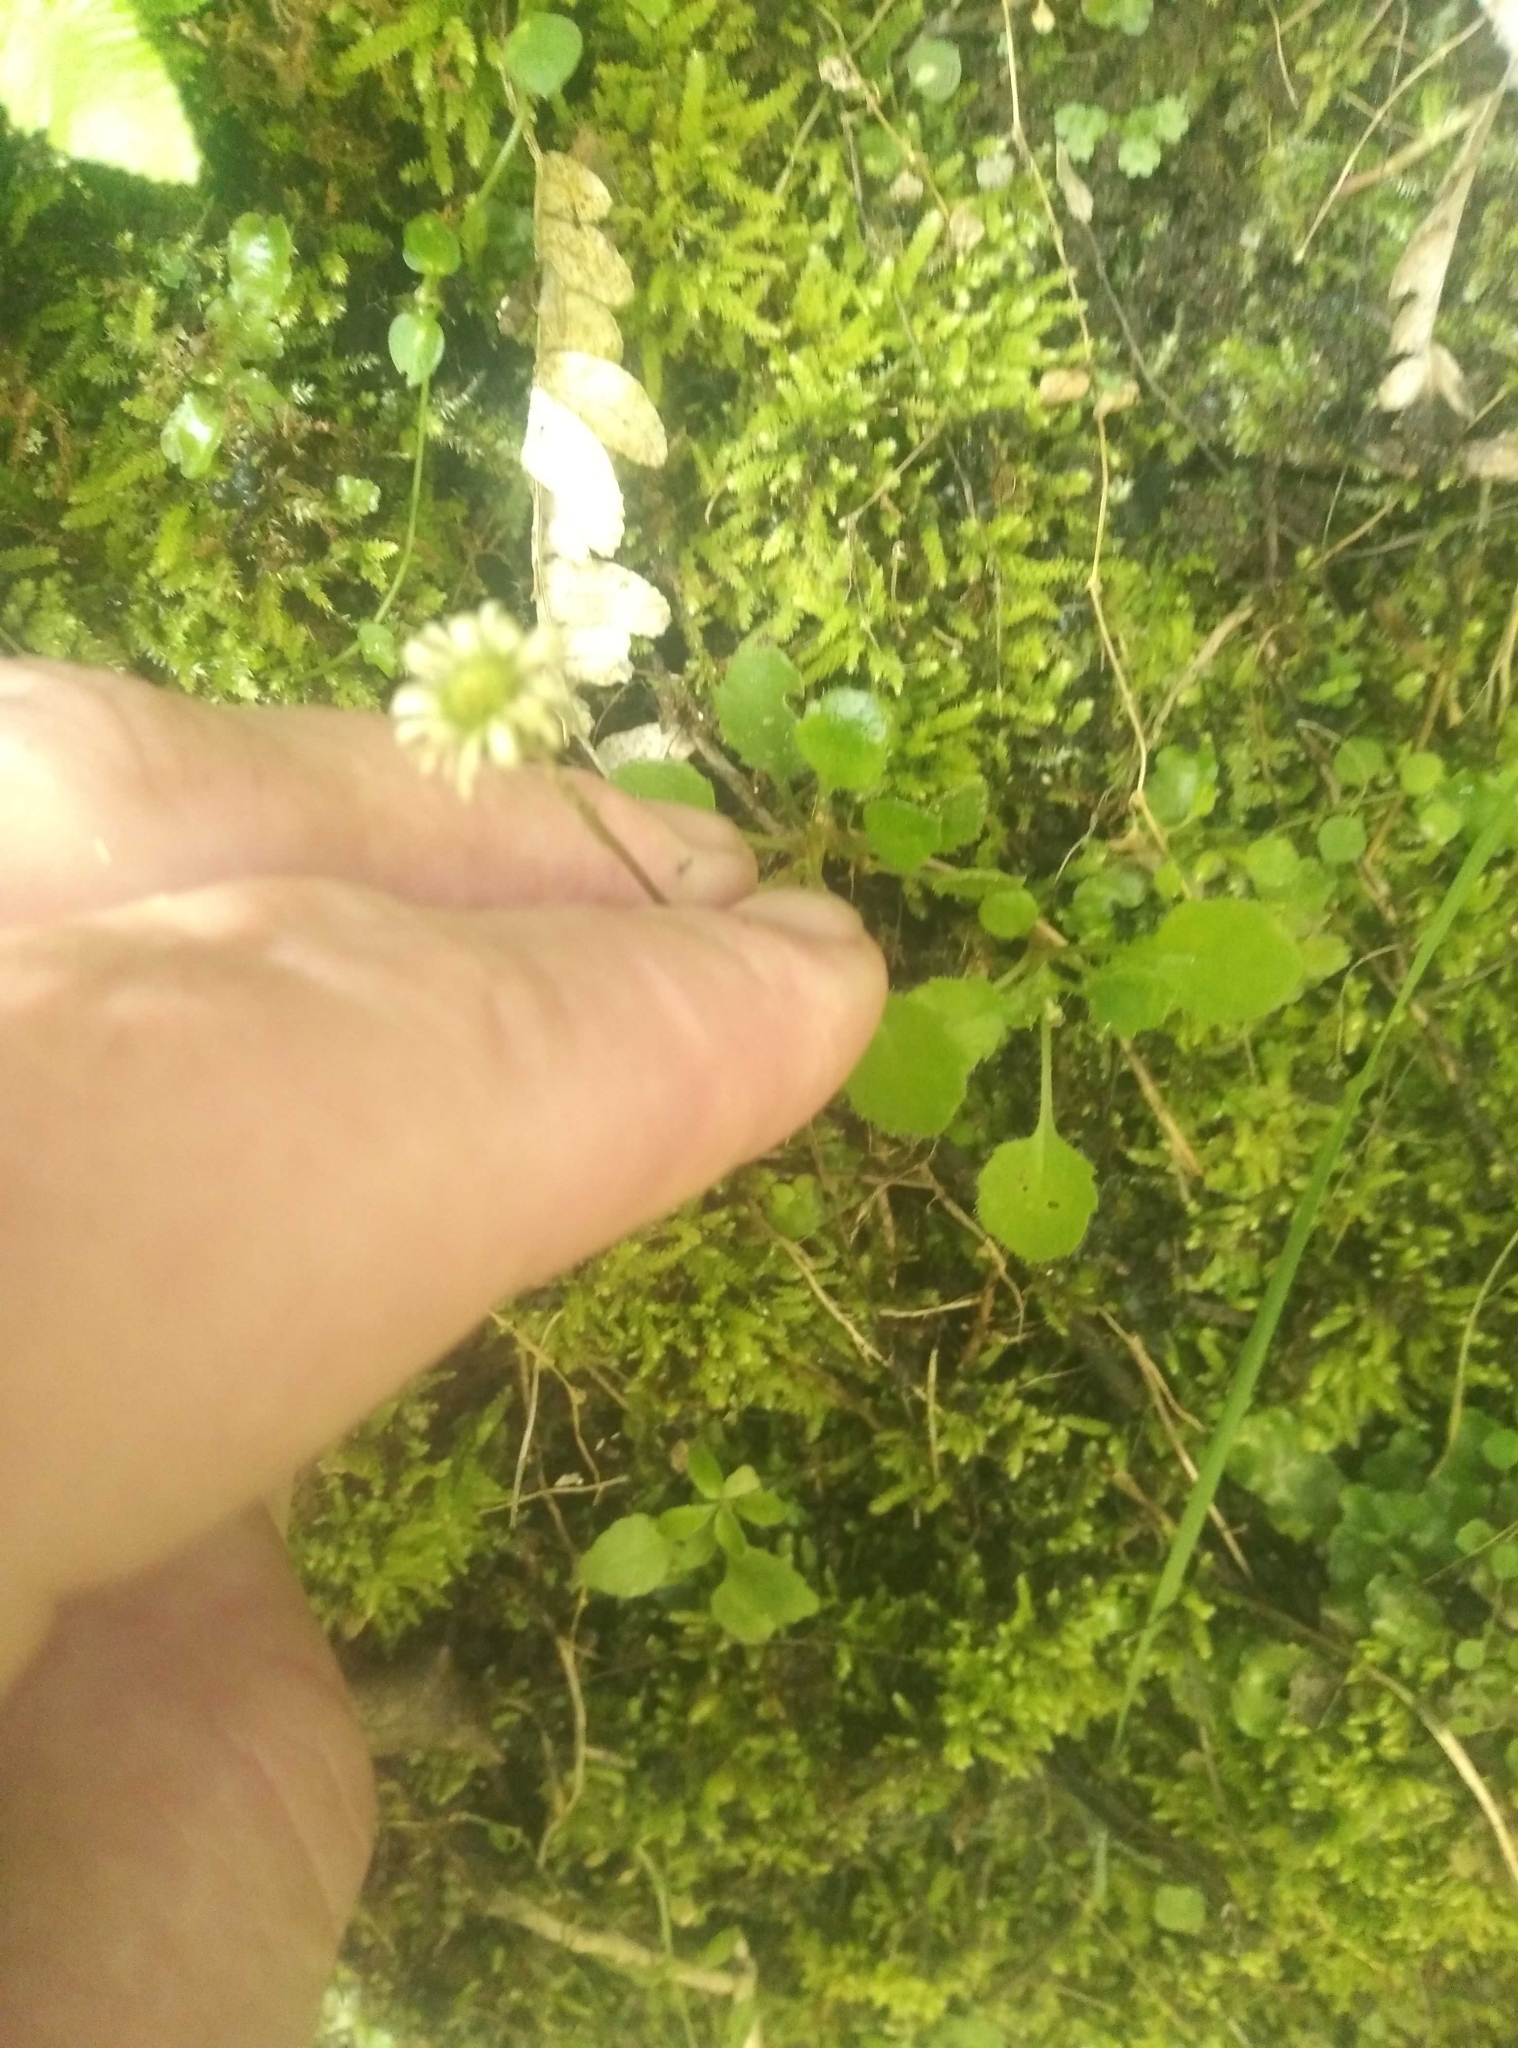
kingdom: Plantae
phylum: Tracheophyta
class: Magnoliopsida
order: Asterales
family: Asteraceae
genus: Lagenophora
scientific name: Lagenophora pumila
